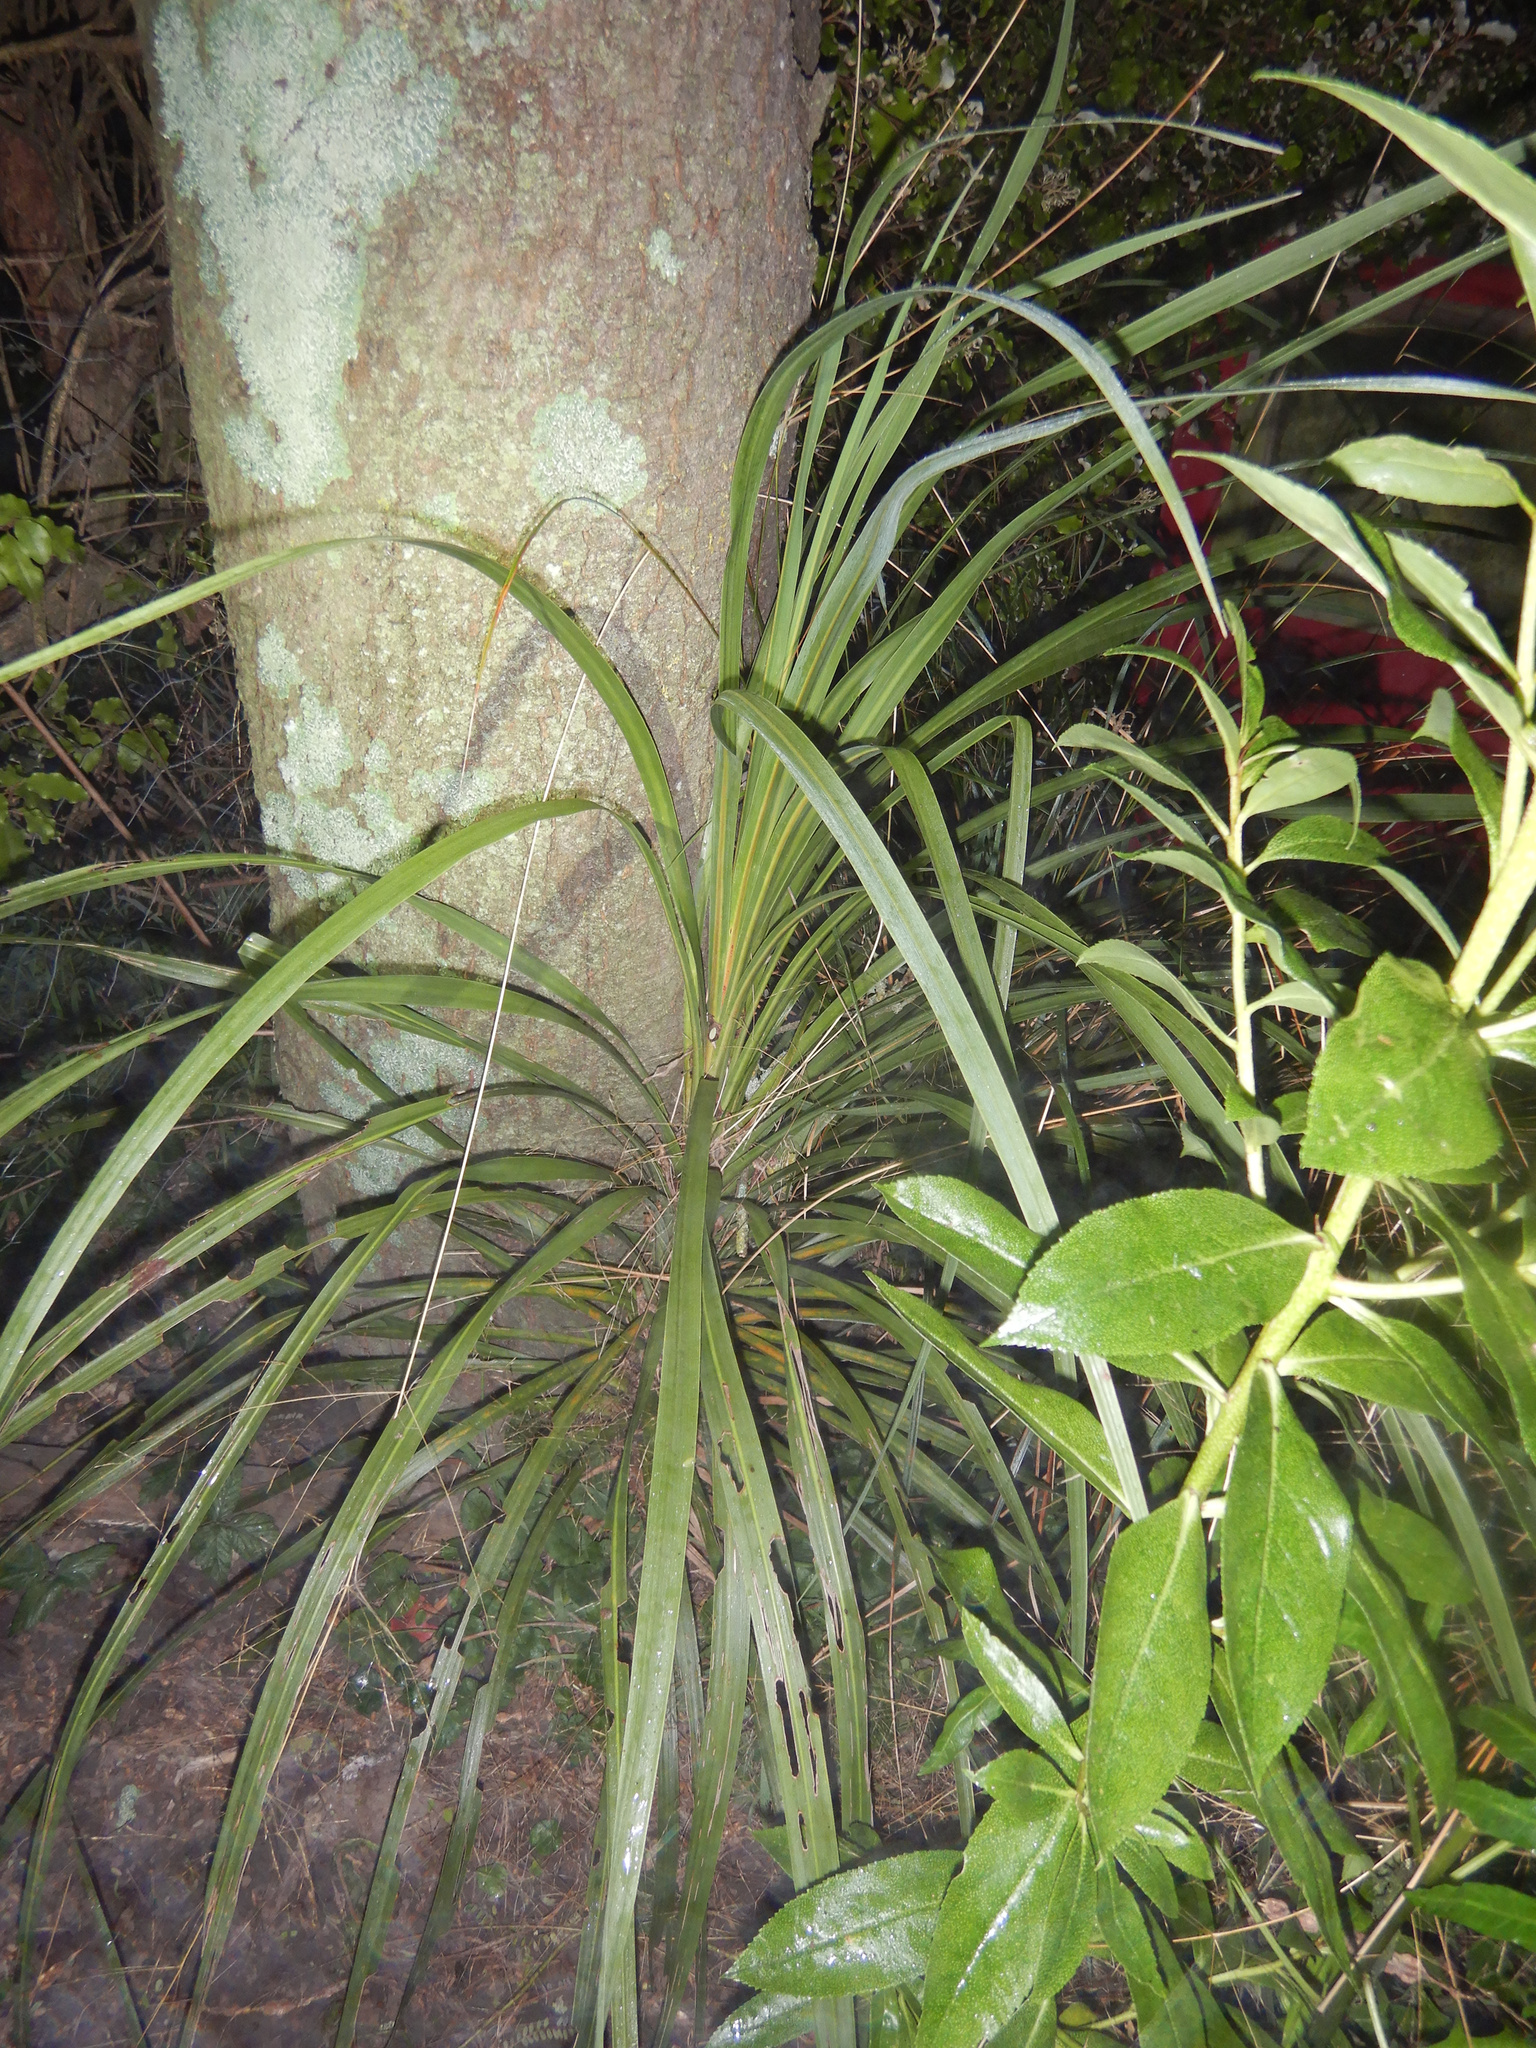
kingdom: Plantae
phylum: Tracheophyta
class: Liliopsida
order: Asparagales
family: Asparagaceae
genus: Cordyline
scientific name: Cordyline australis
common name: Cabbage-palm
